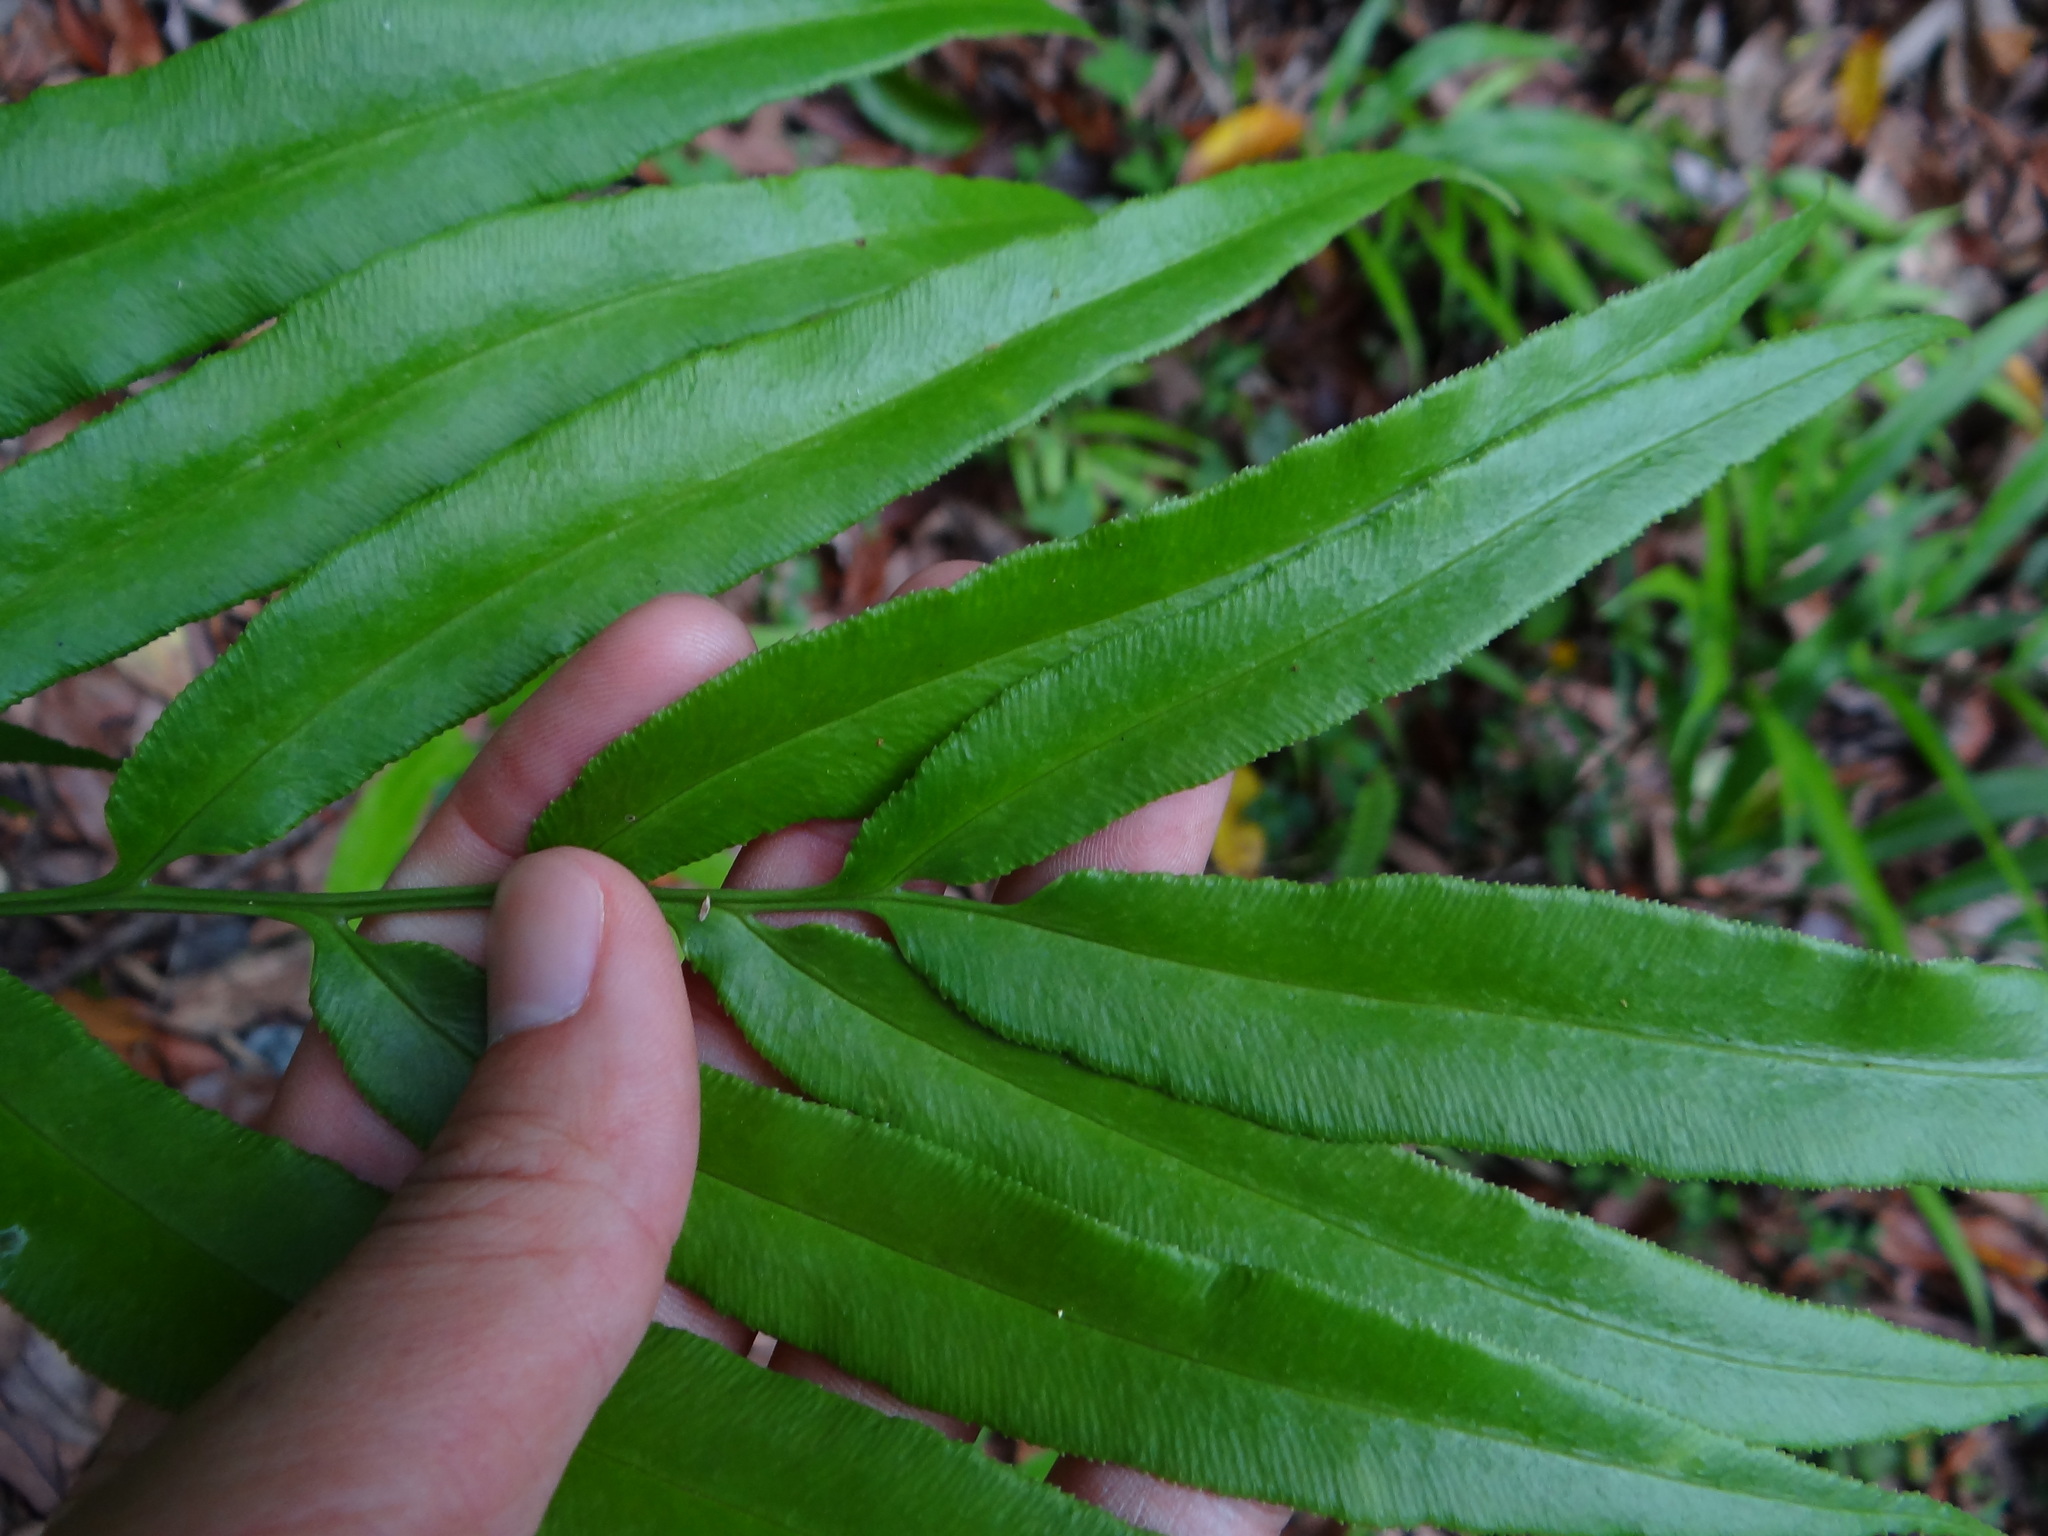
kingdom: Plantae
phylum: Tracheophyta
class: Polypodiopsida
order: Polypodiales
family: Pteridaceae
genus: Coniogramme
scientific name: Coniogramme japonica
